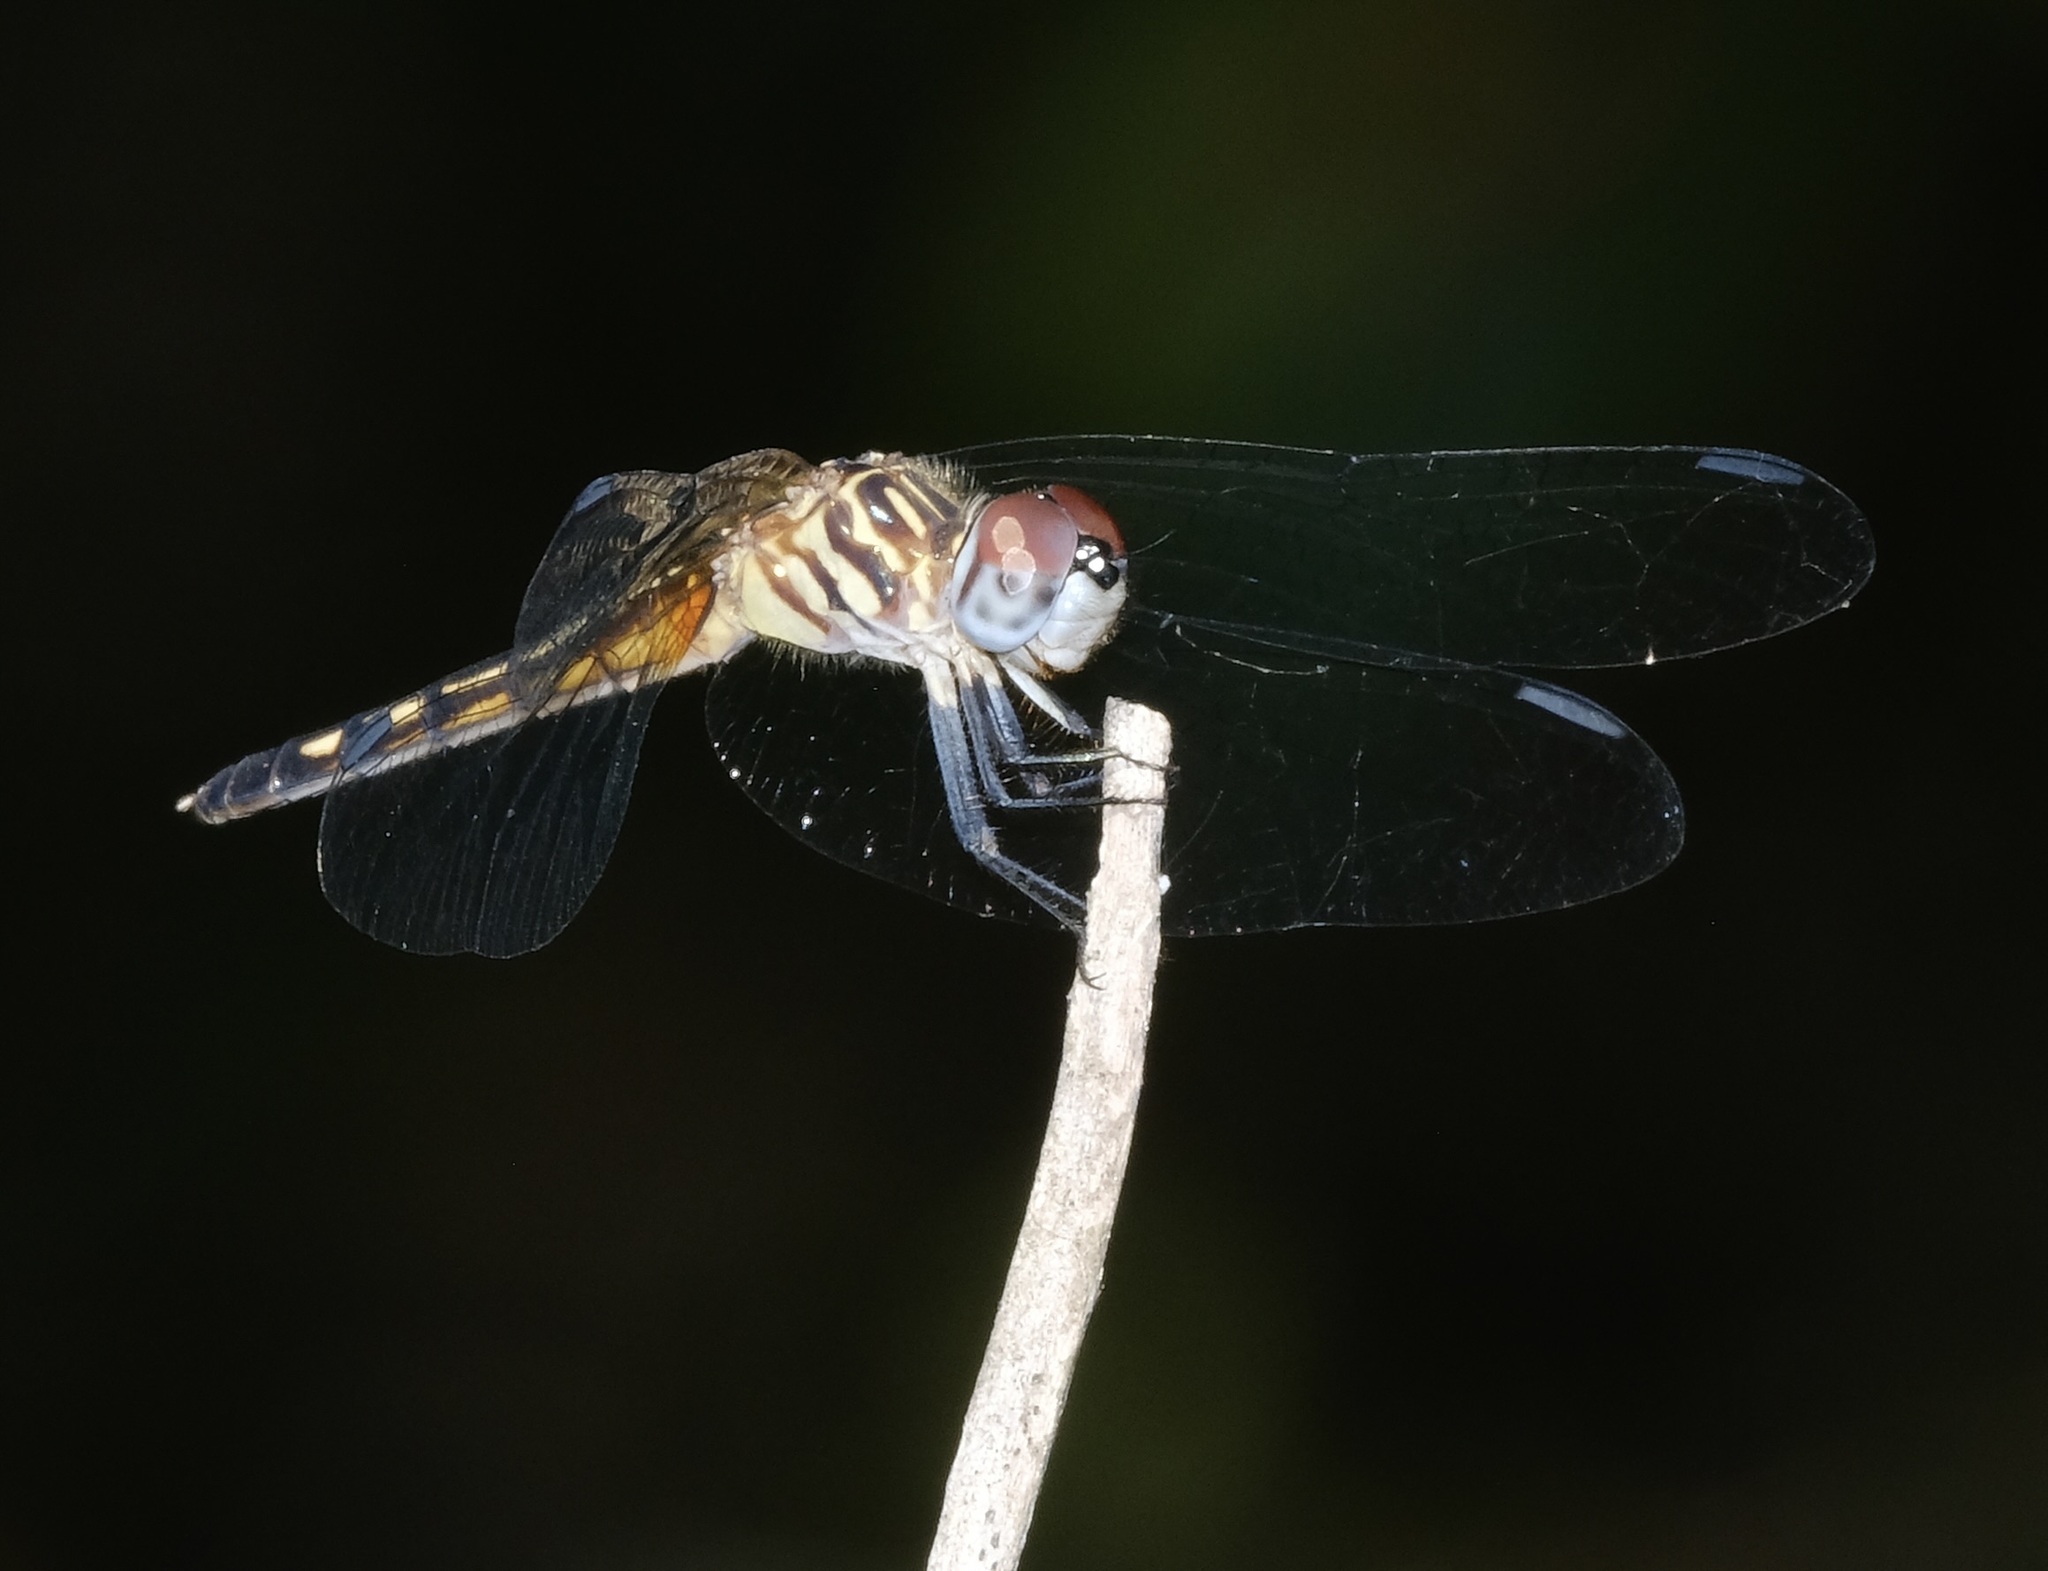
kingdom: Animalia
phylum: Arthropoda
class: Insecta
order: Odonata
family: Libellulidae
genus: Pachydiplax
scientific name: Pachydiplax longipennis
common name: Blue dasher
